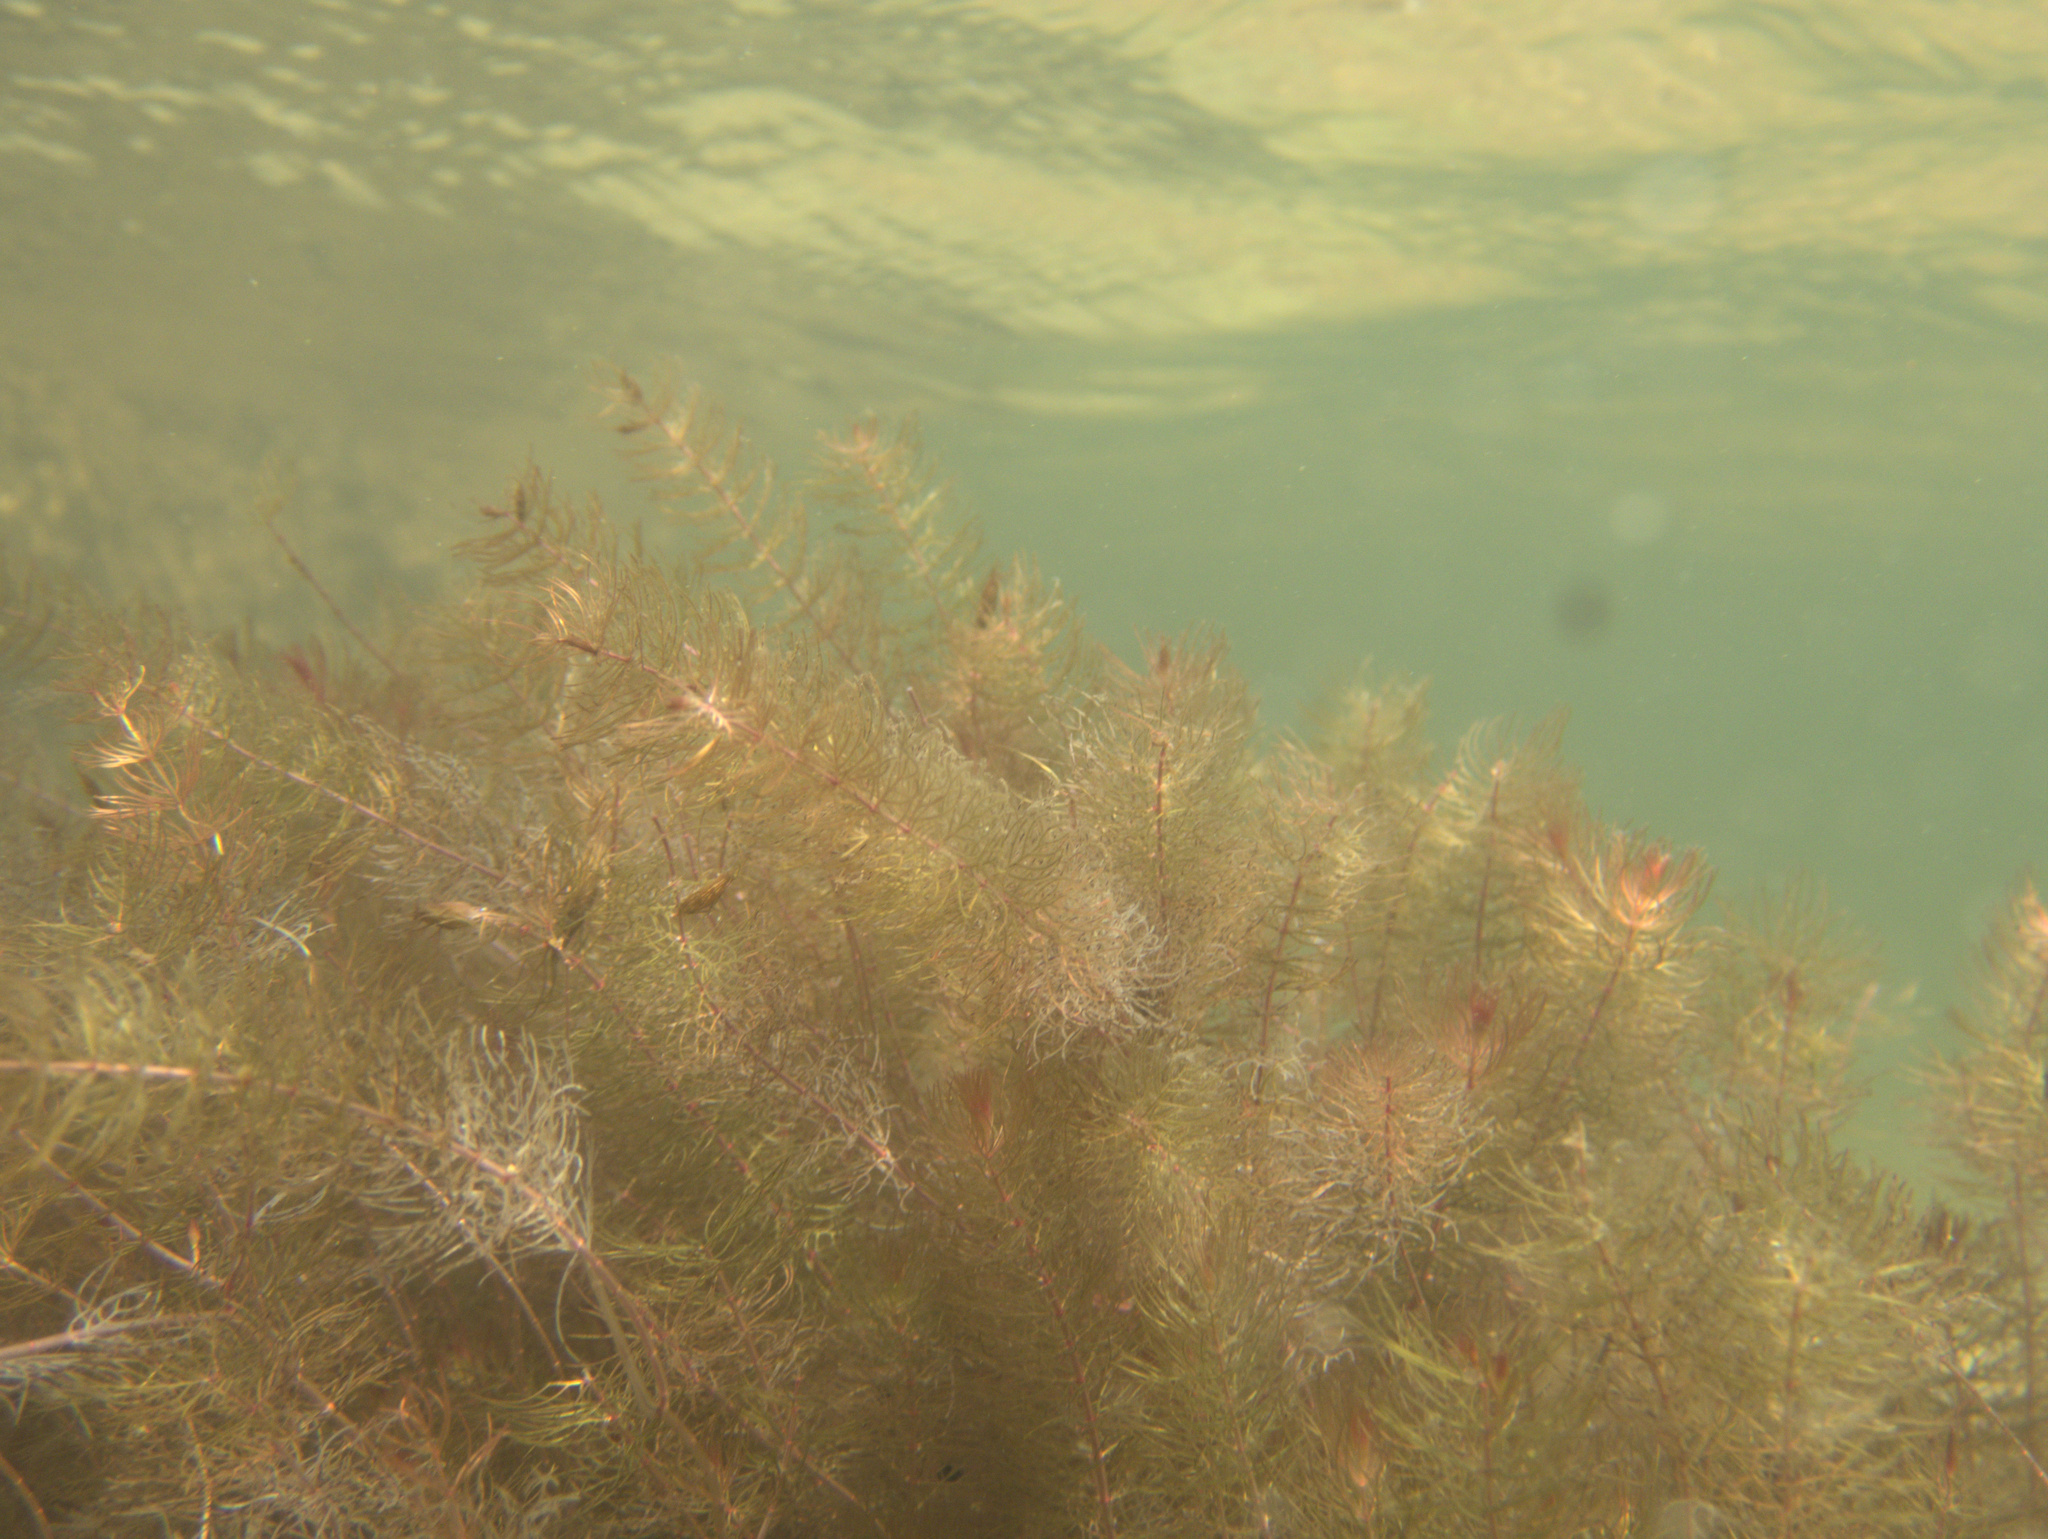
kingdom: Plantae
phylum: Tracheophyta
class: Magnoliopsida
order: Saxifragales
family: Haloragaceae
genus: Myriophyllum
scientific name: Myriophyllum propinquum
